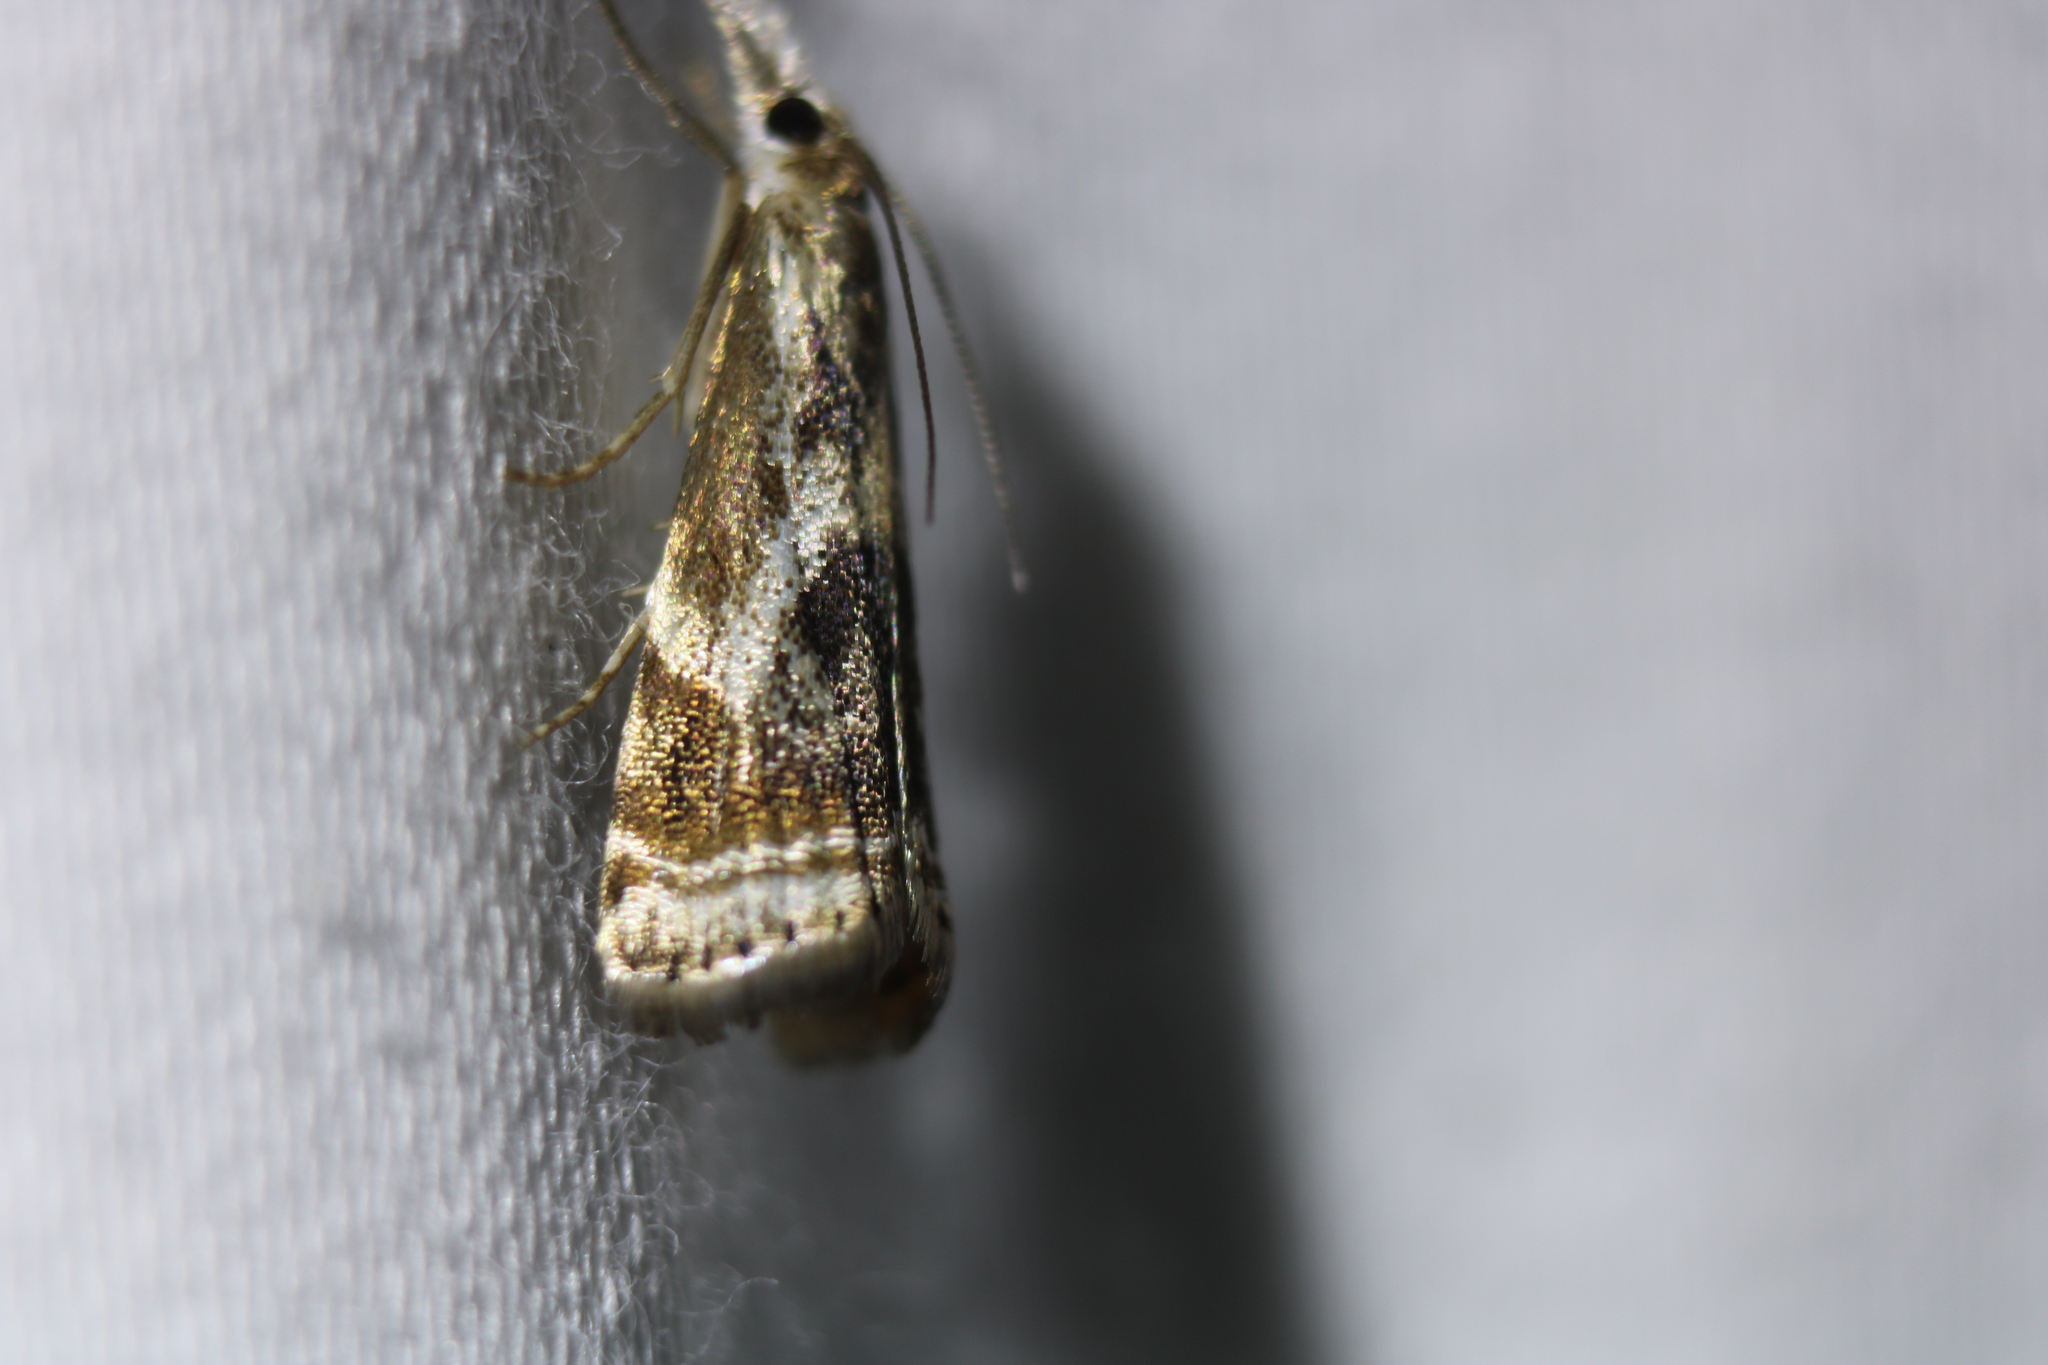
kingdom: Animalia
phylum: Arthropoda
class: Insecta
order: Lepidoptera
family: Crambidae
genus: Microcrambus
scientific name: Microcrambus elegans
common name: Elegant grass-veneer
